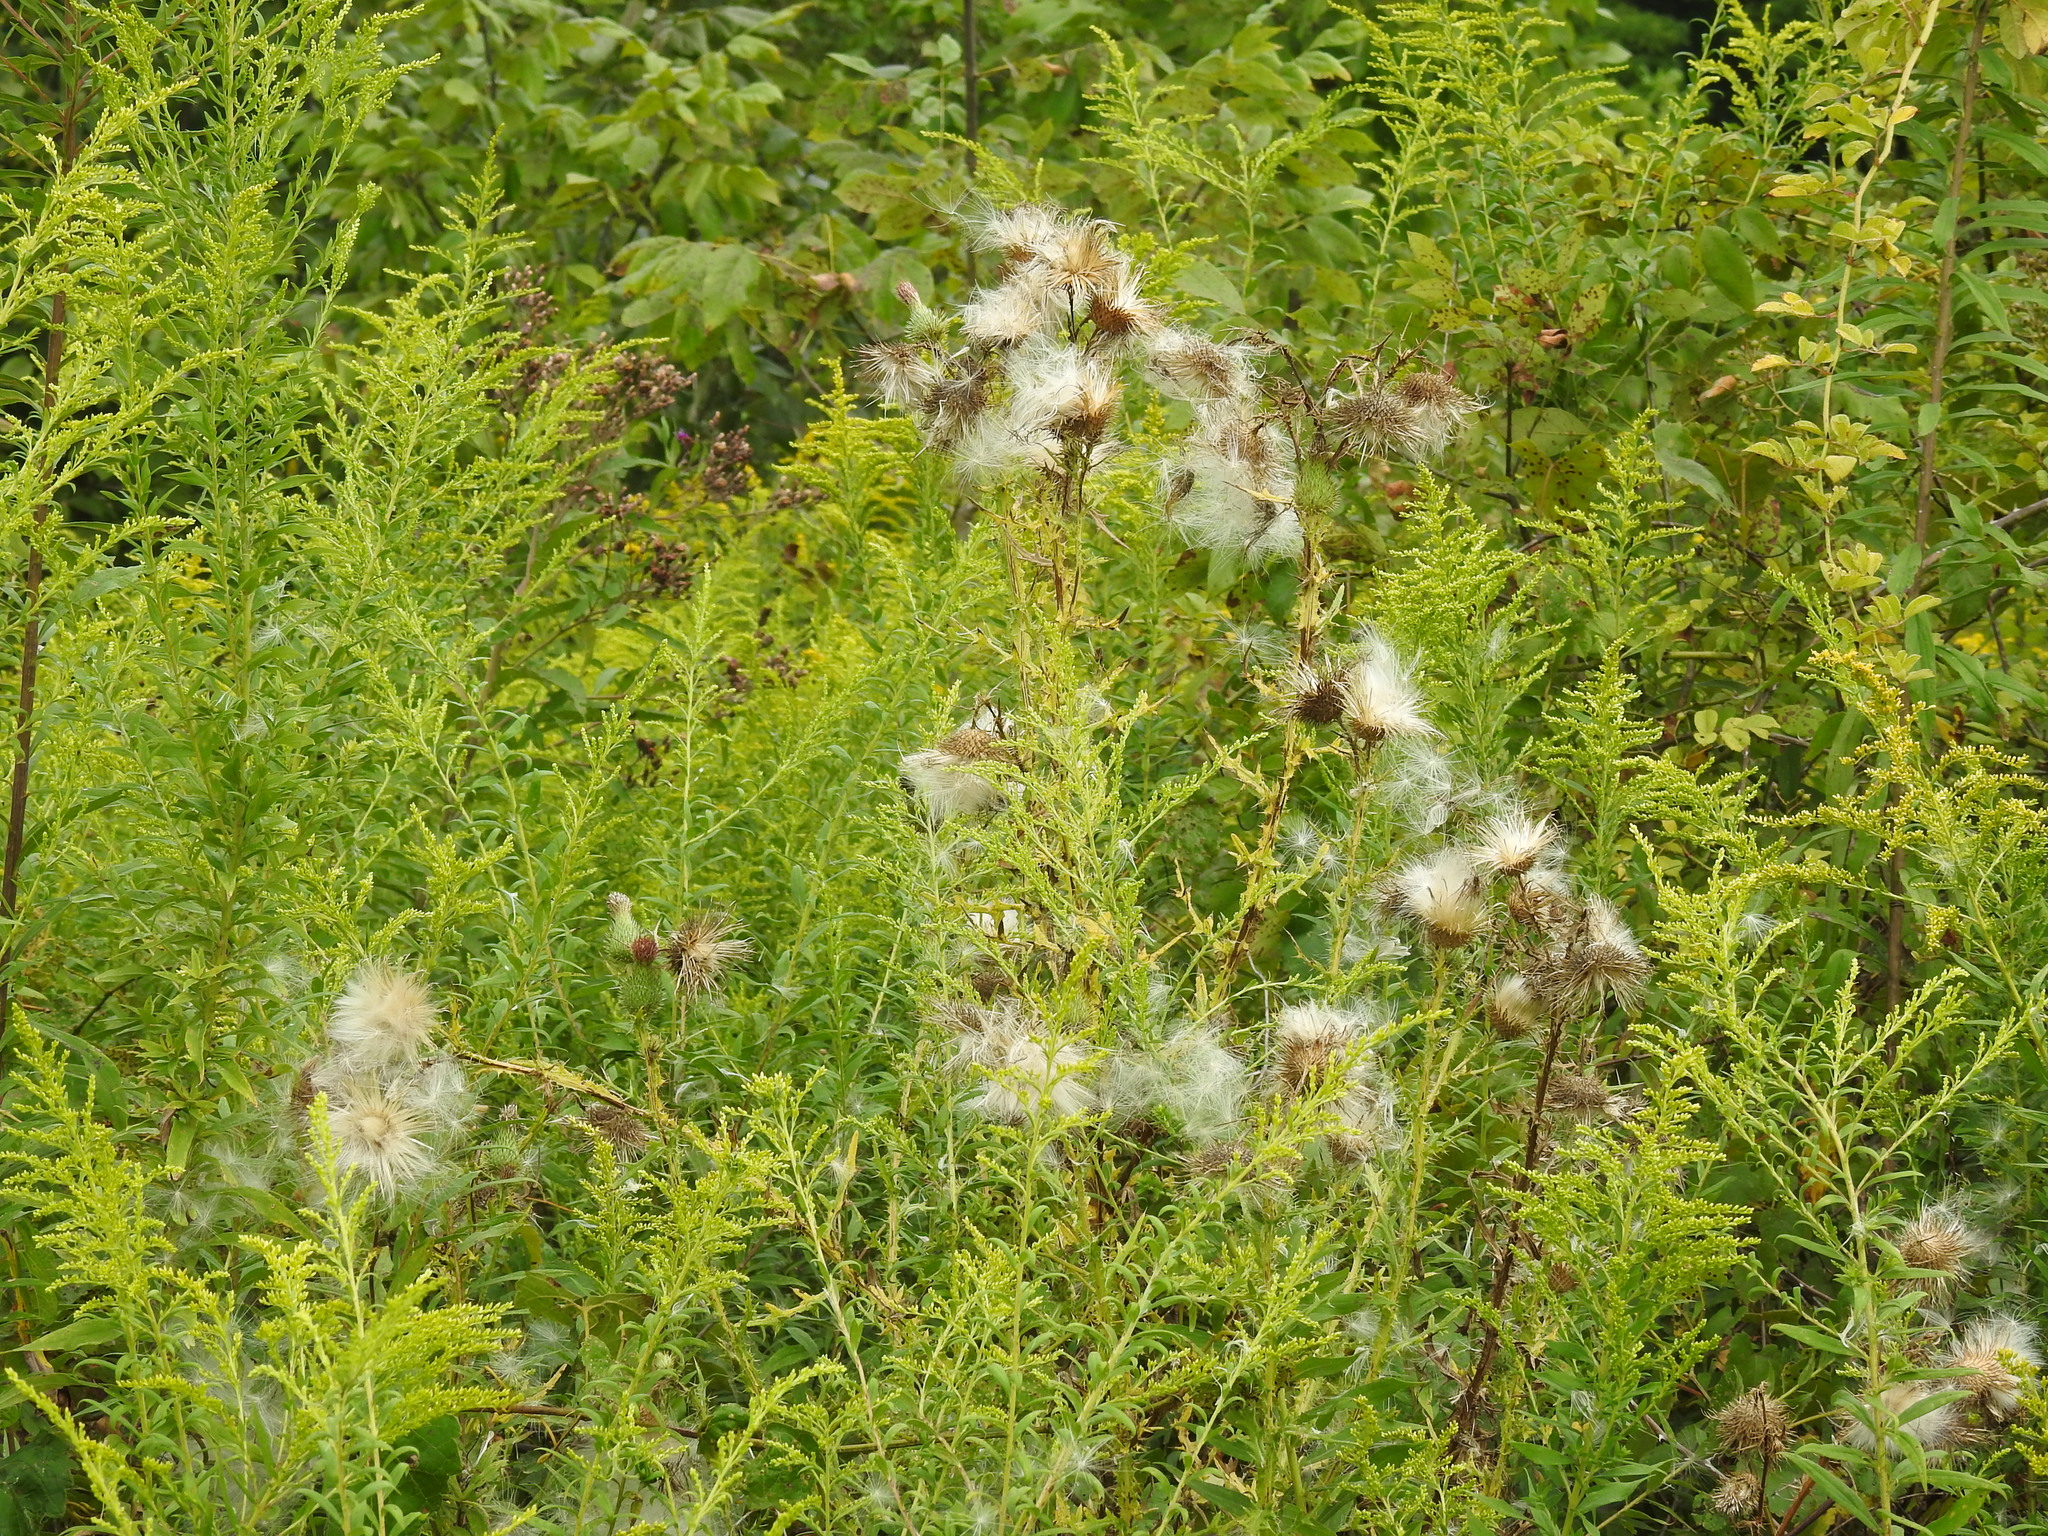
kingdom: Plantae
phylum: Tracheophyta
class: Magnoliopsida
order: Asterales
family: Asteraceae
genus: Cirsium
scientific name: Cirsium vulgare
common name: Bull thistle
